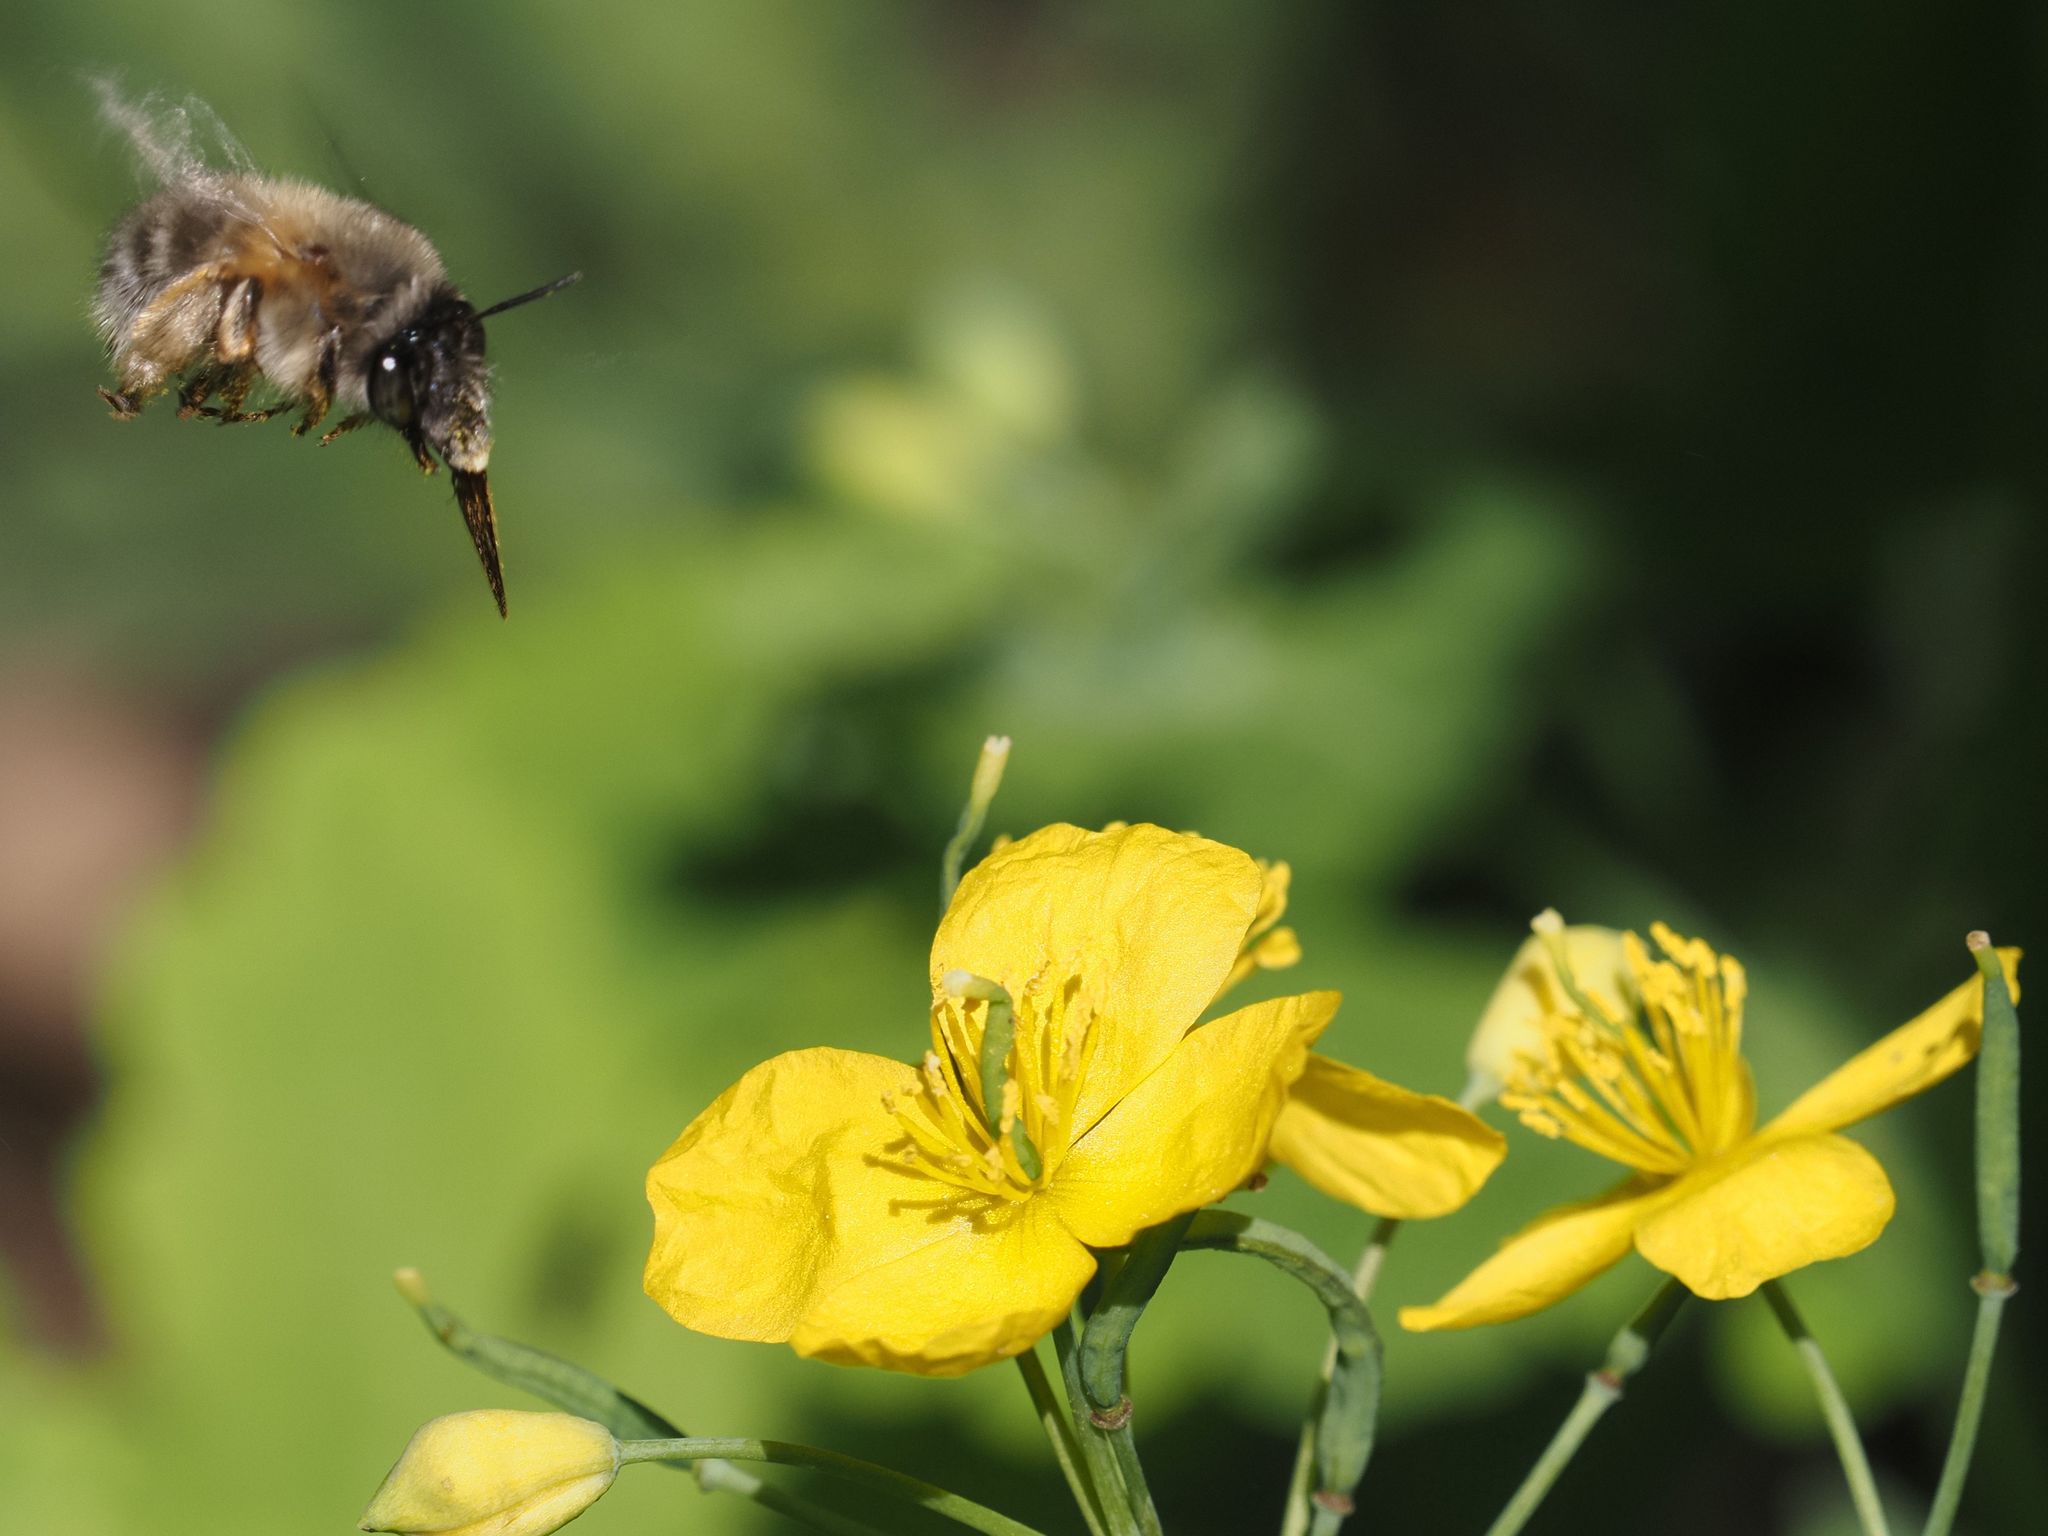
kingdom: Animalia
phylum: Arthropoda
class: Insecta
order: Hymenoptera
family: Apidae
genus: Anthophora
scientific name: Anthophora plumipes
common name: Hairy-footed flower bee
